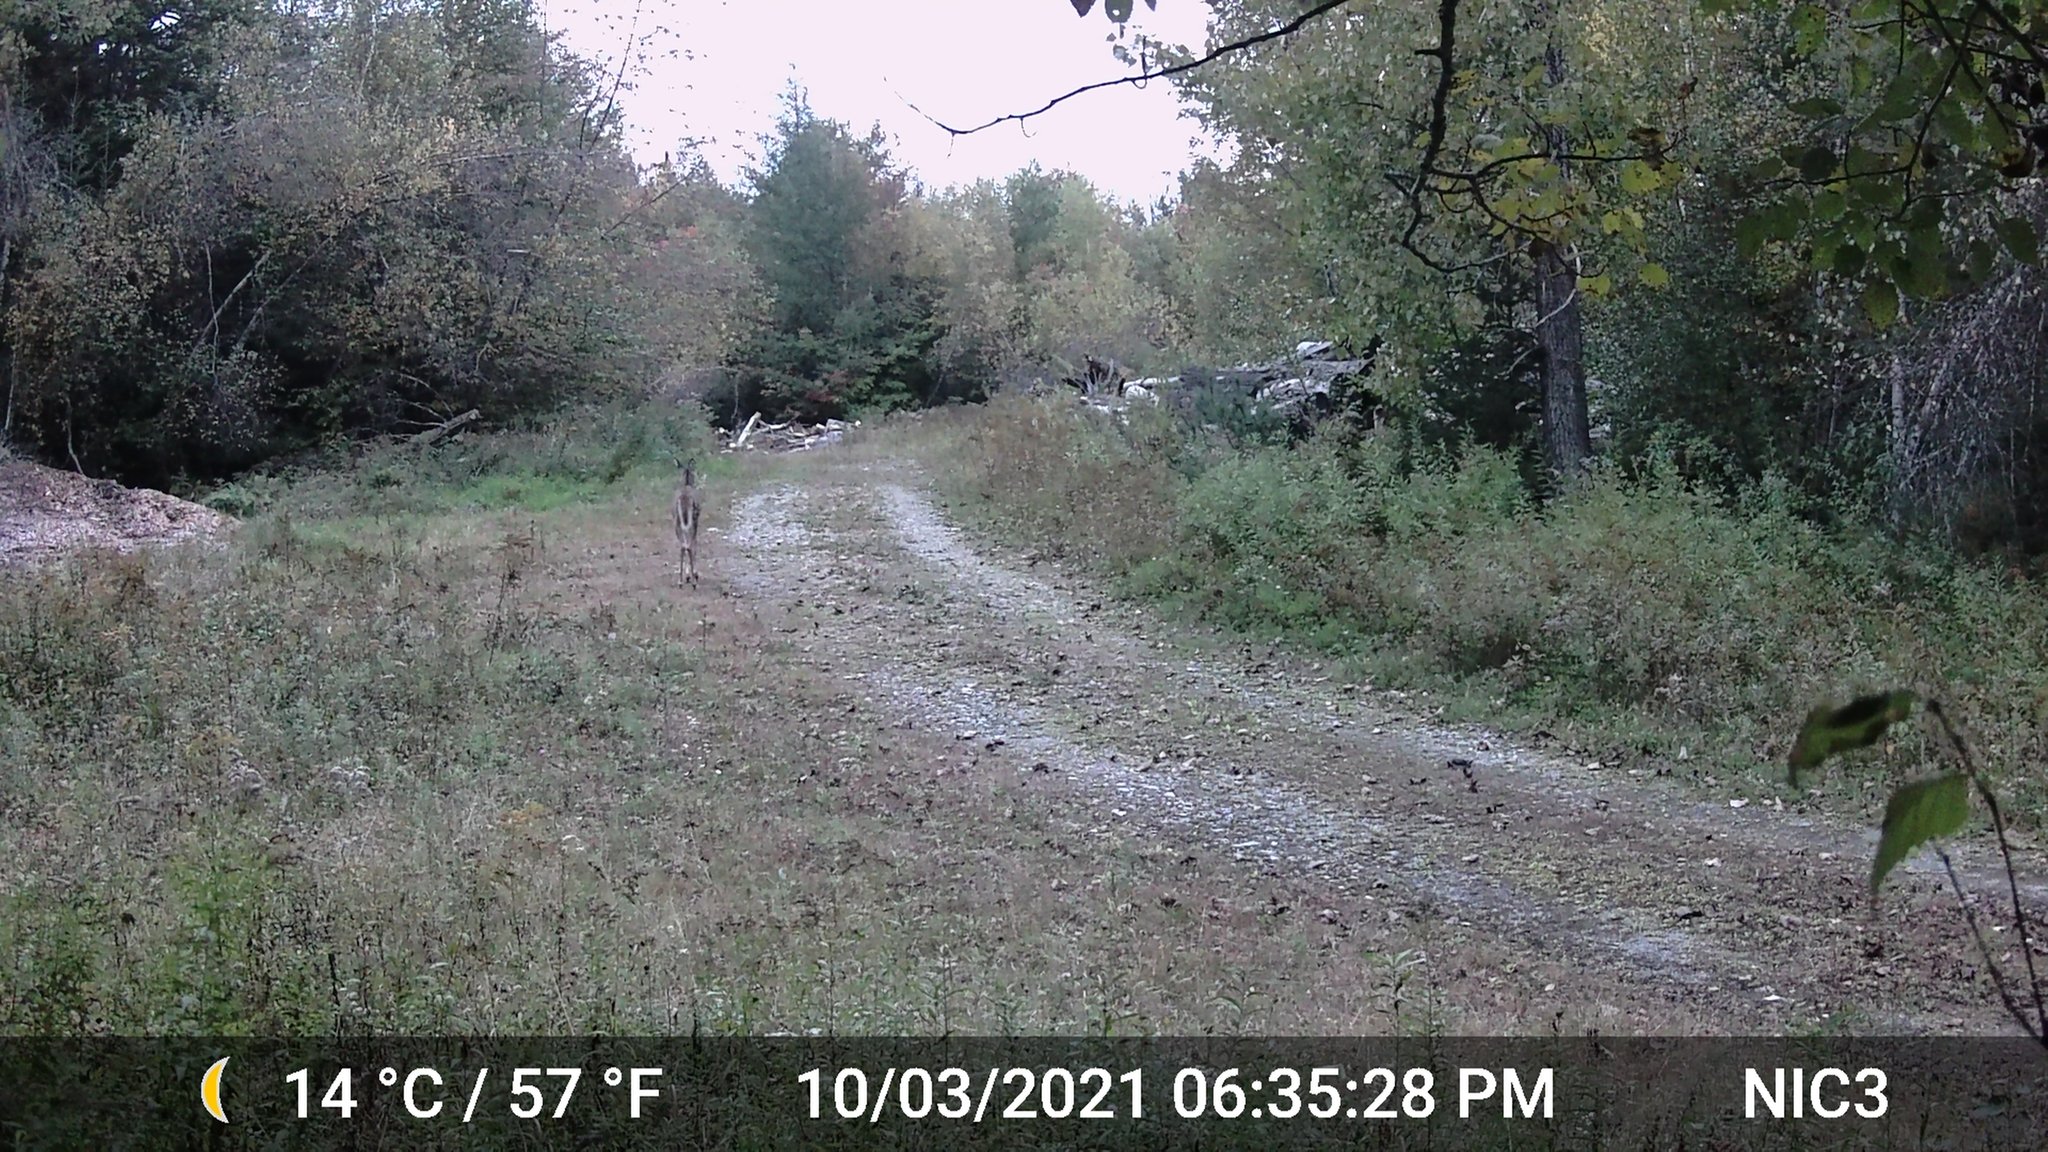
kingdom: Animalia
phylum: Chordata
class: Mammalia
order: Artiodactyla
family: Cervidae
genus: Odocoileus
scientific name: Odocoileus virginianus
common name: White-tailed deer
